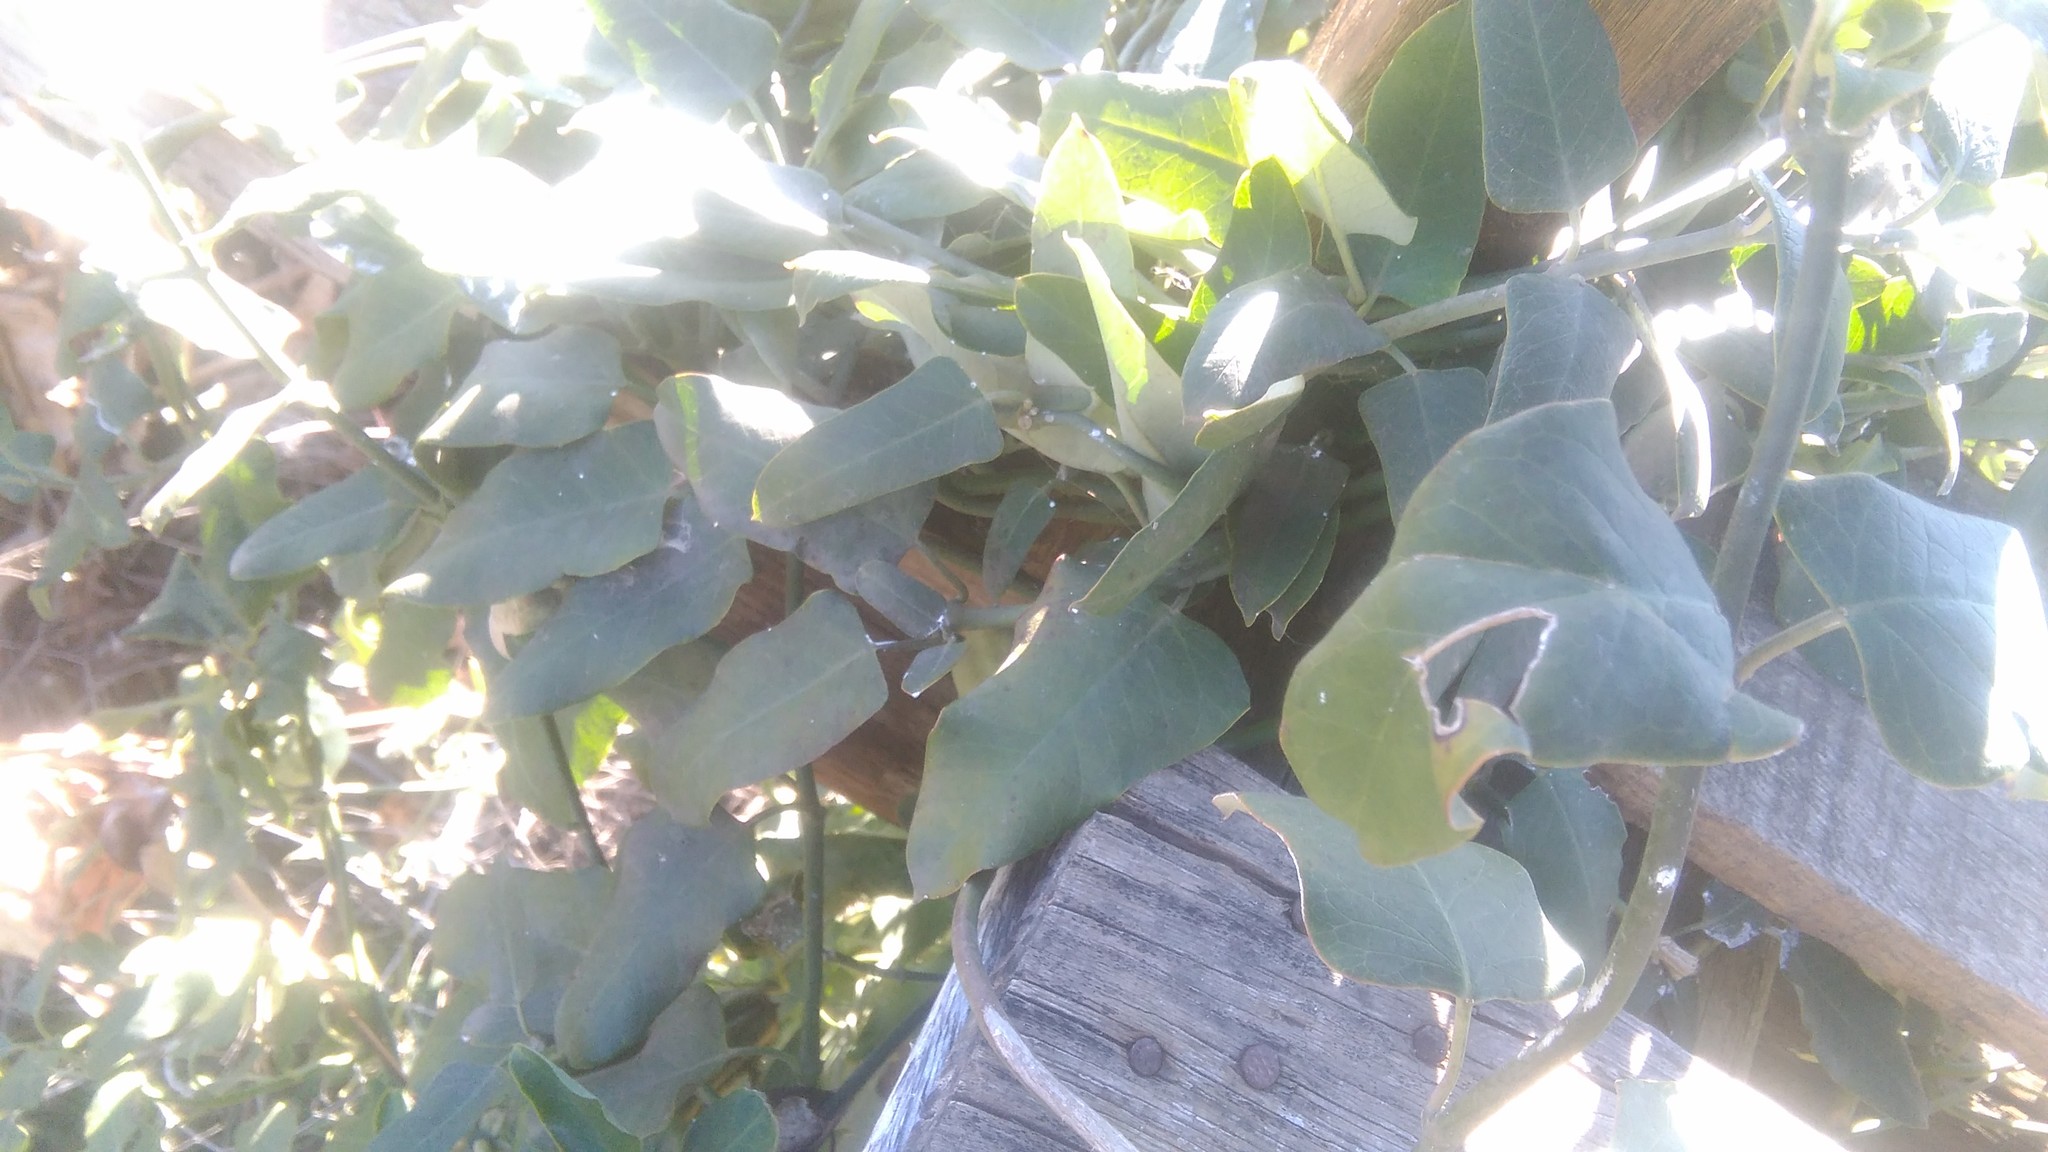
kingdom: Plantae
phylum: Tracheophyta
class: Magnoliopsida
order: Gentianales
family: Apocynaceae
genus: Araujia
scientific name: Araujia sericifera
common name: White bladderflower
